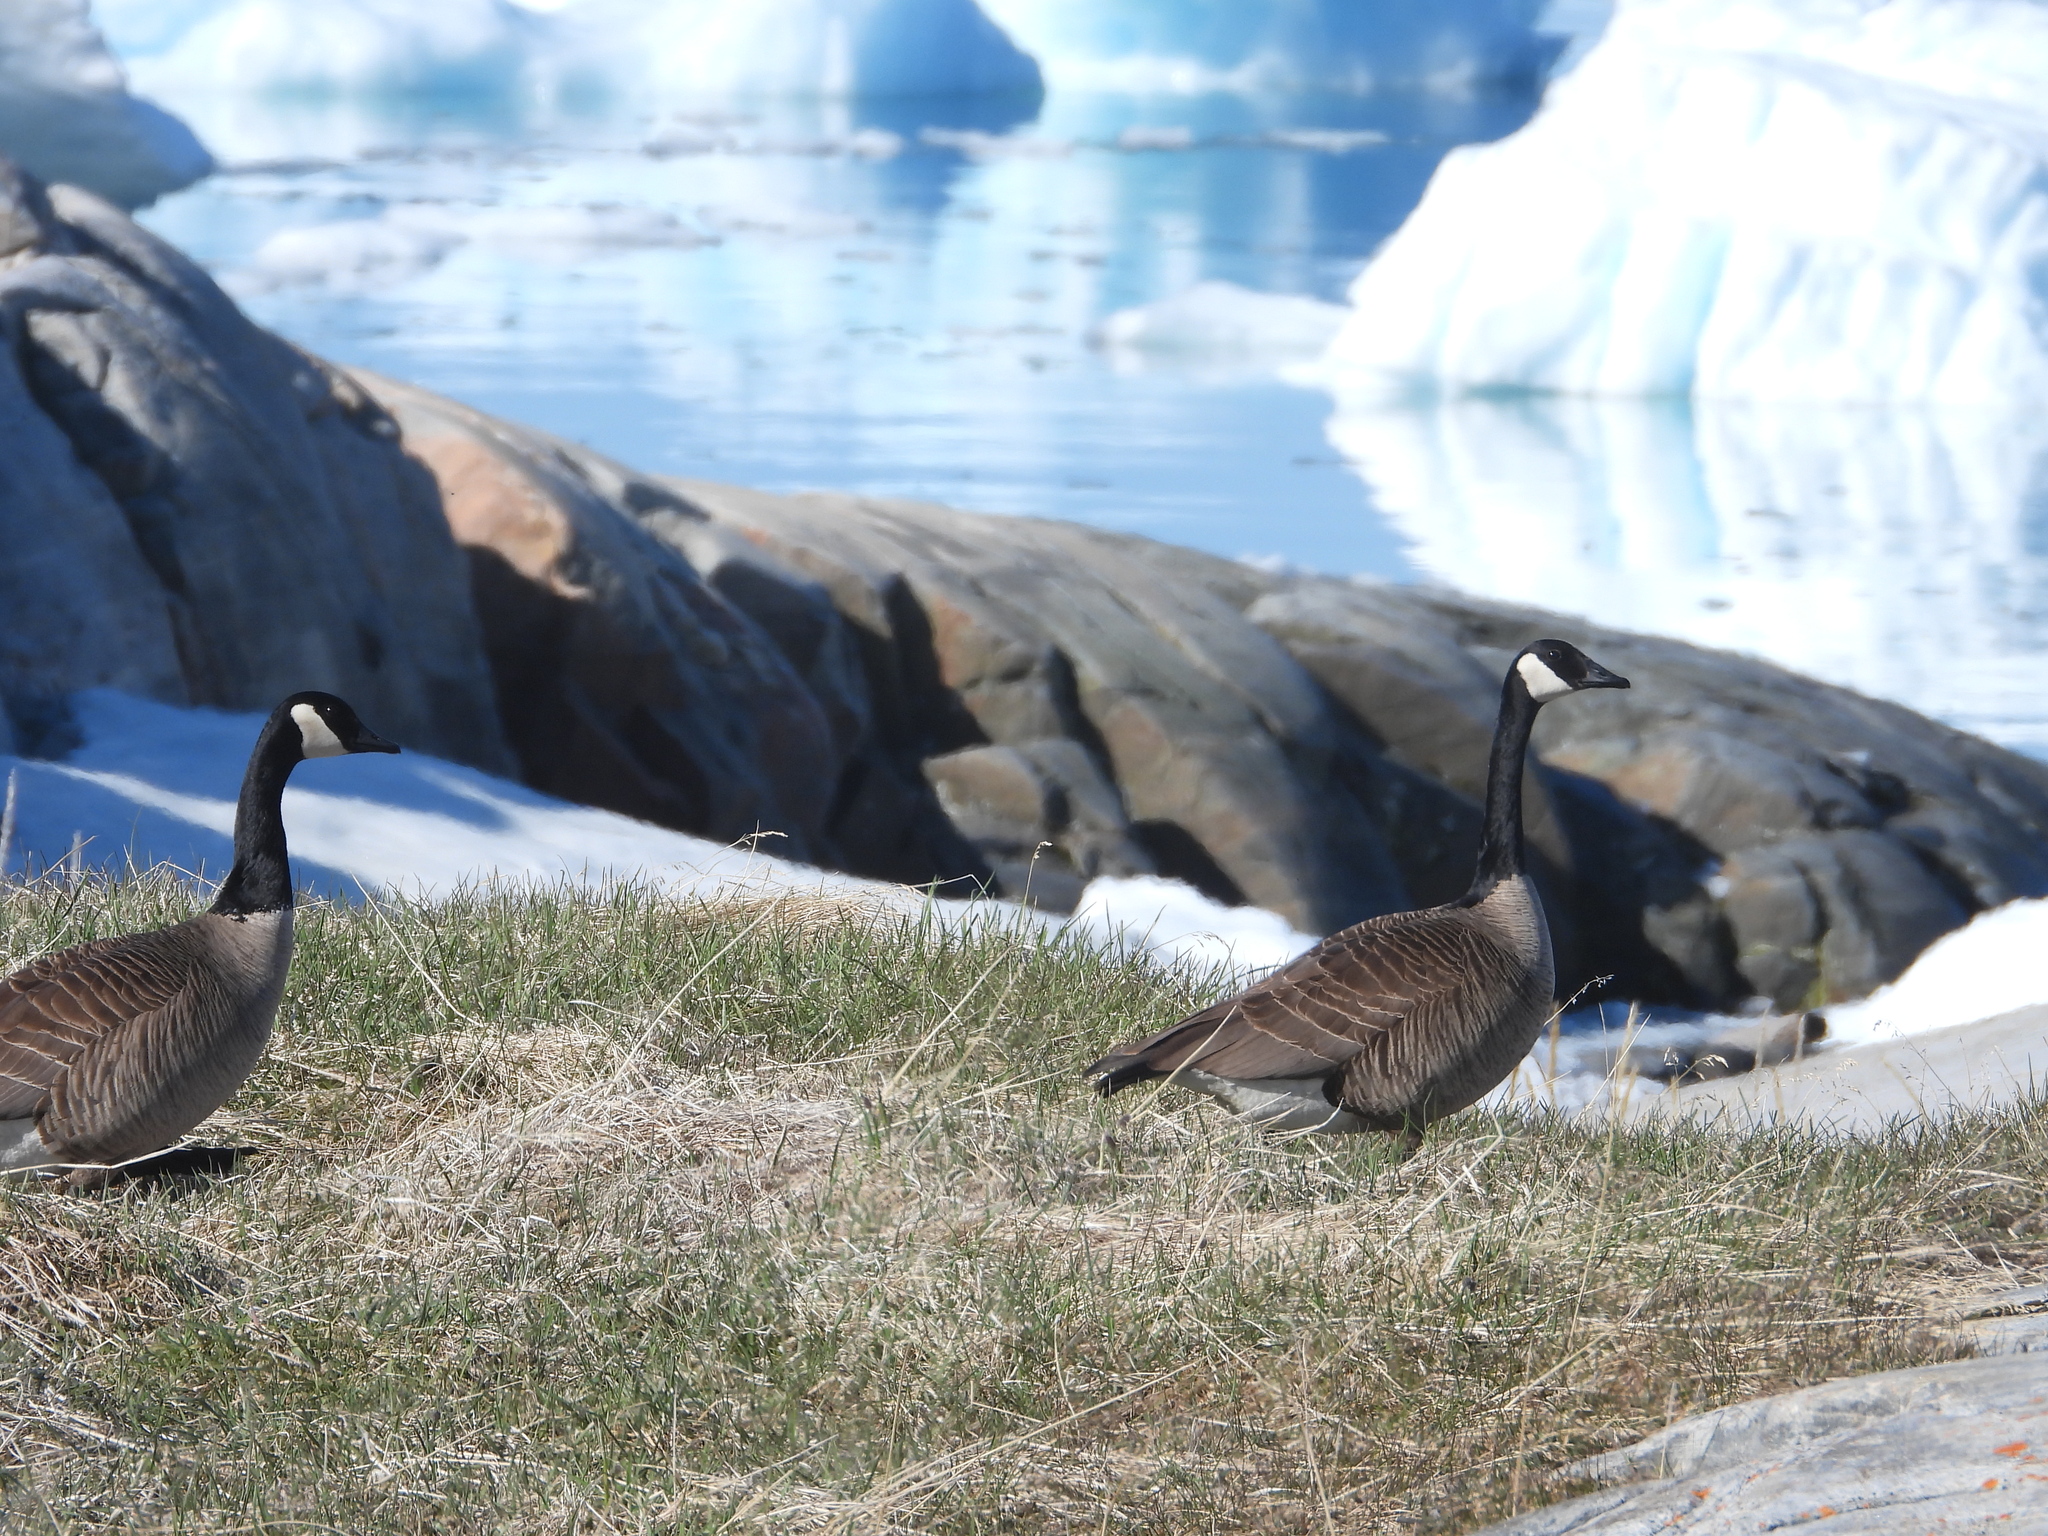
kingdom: Animalia
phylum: Chordata
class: Aves
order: Anseriformes
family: Anatidae
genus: Branta
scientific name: Branta canadensis
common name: Canada goose
